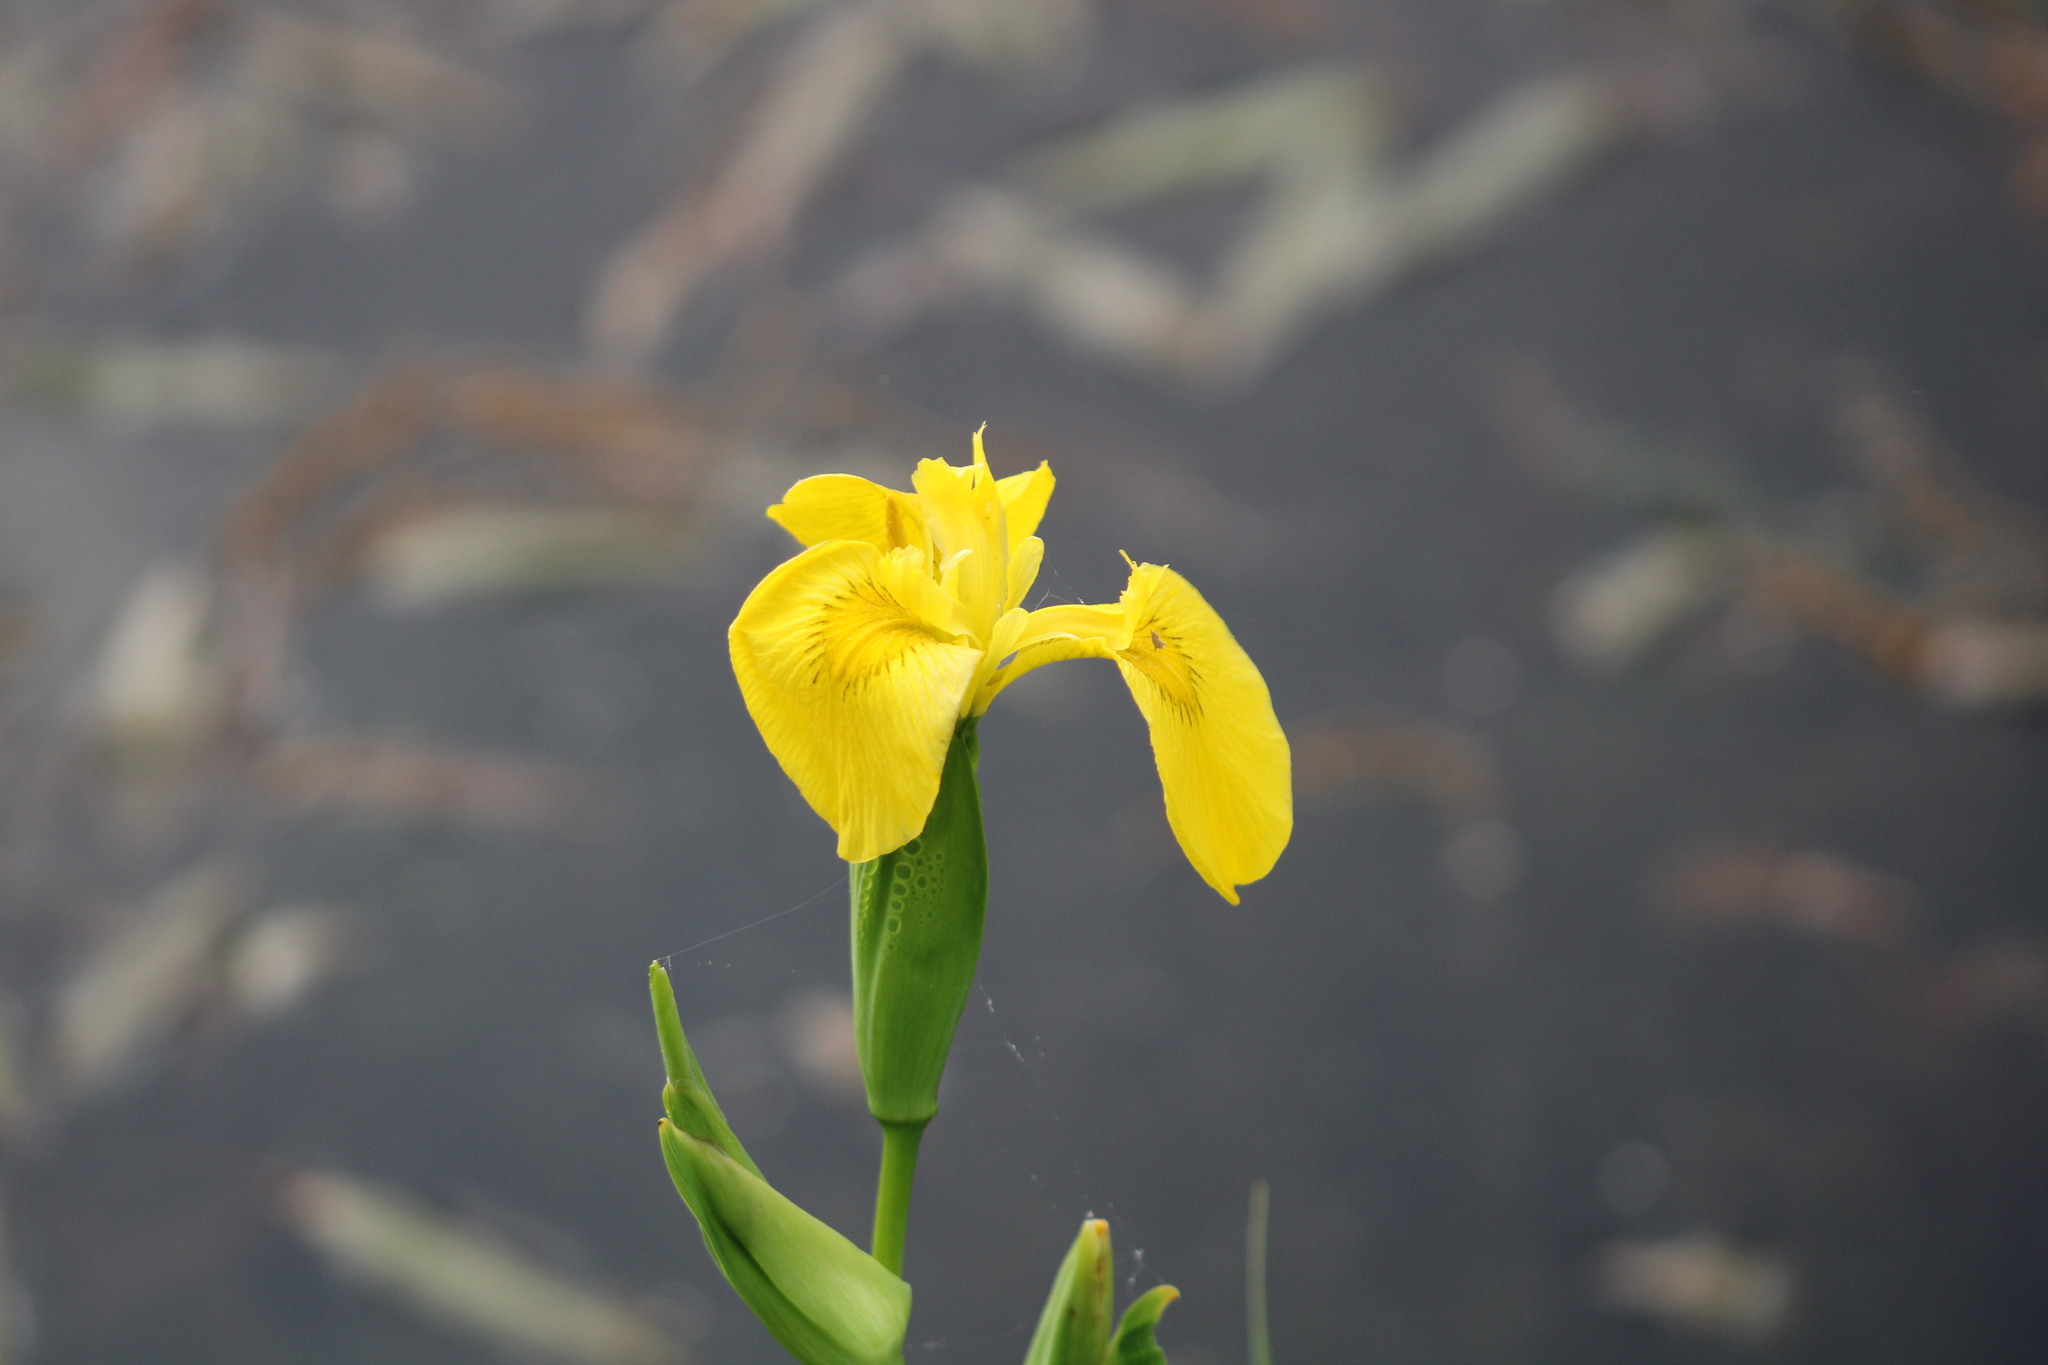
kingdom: Plantae
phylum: Tracheophyta
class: Liliopsida
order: Asparagales
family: Iridaceae
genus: Iris
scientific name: Iris pseudacorus
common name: Yellow flag
